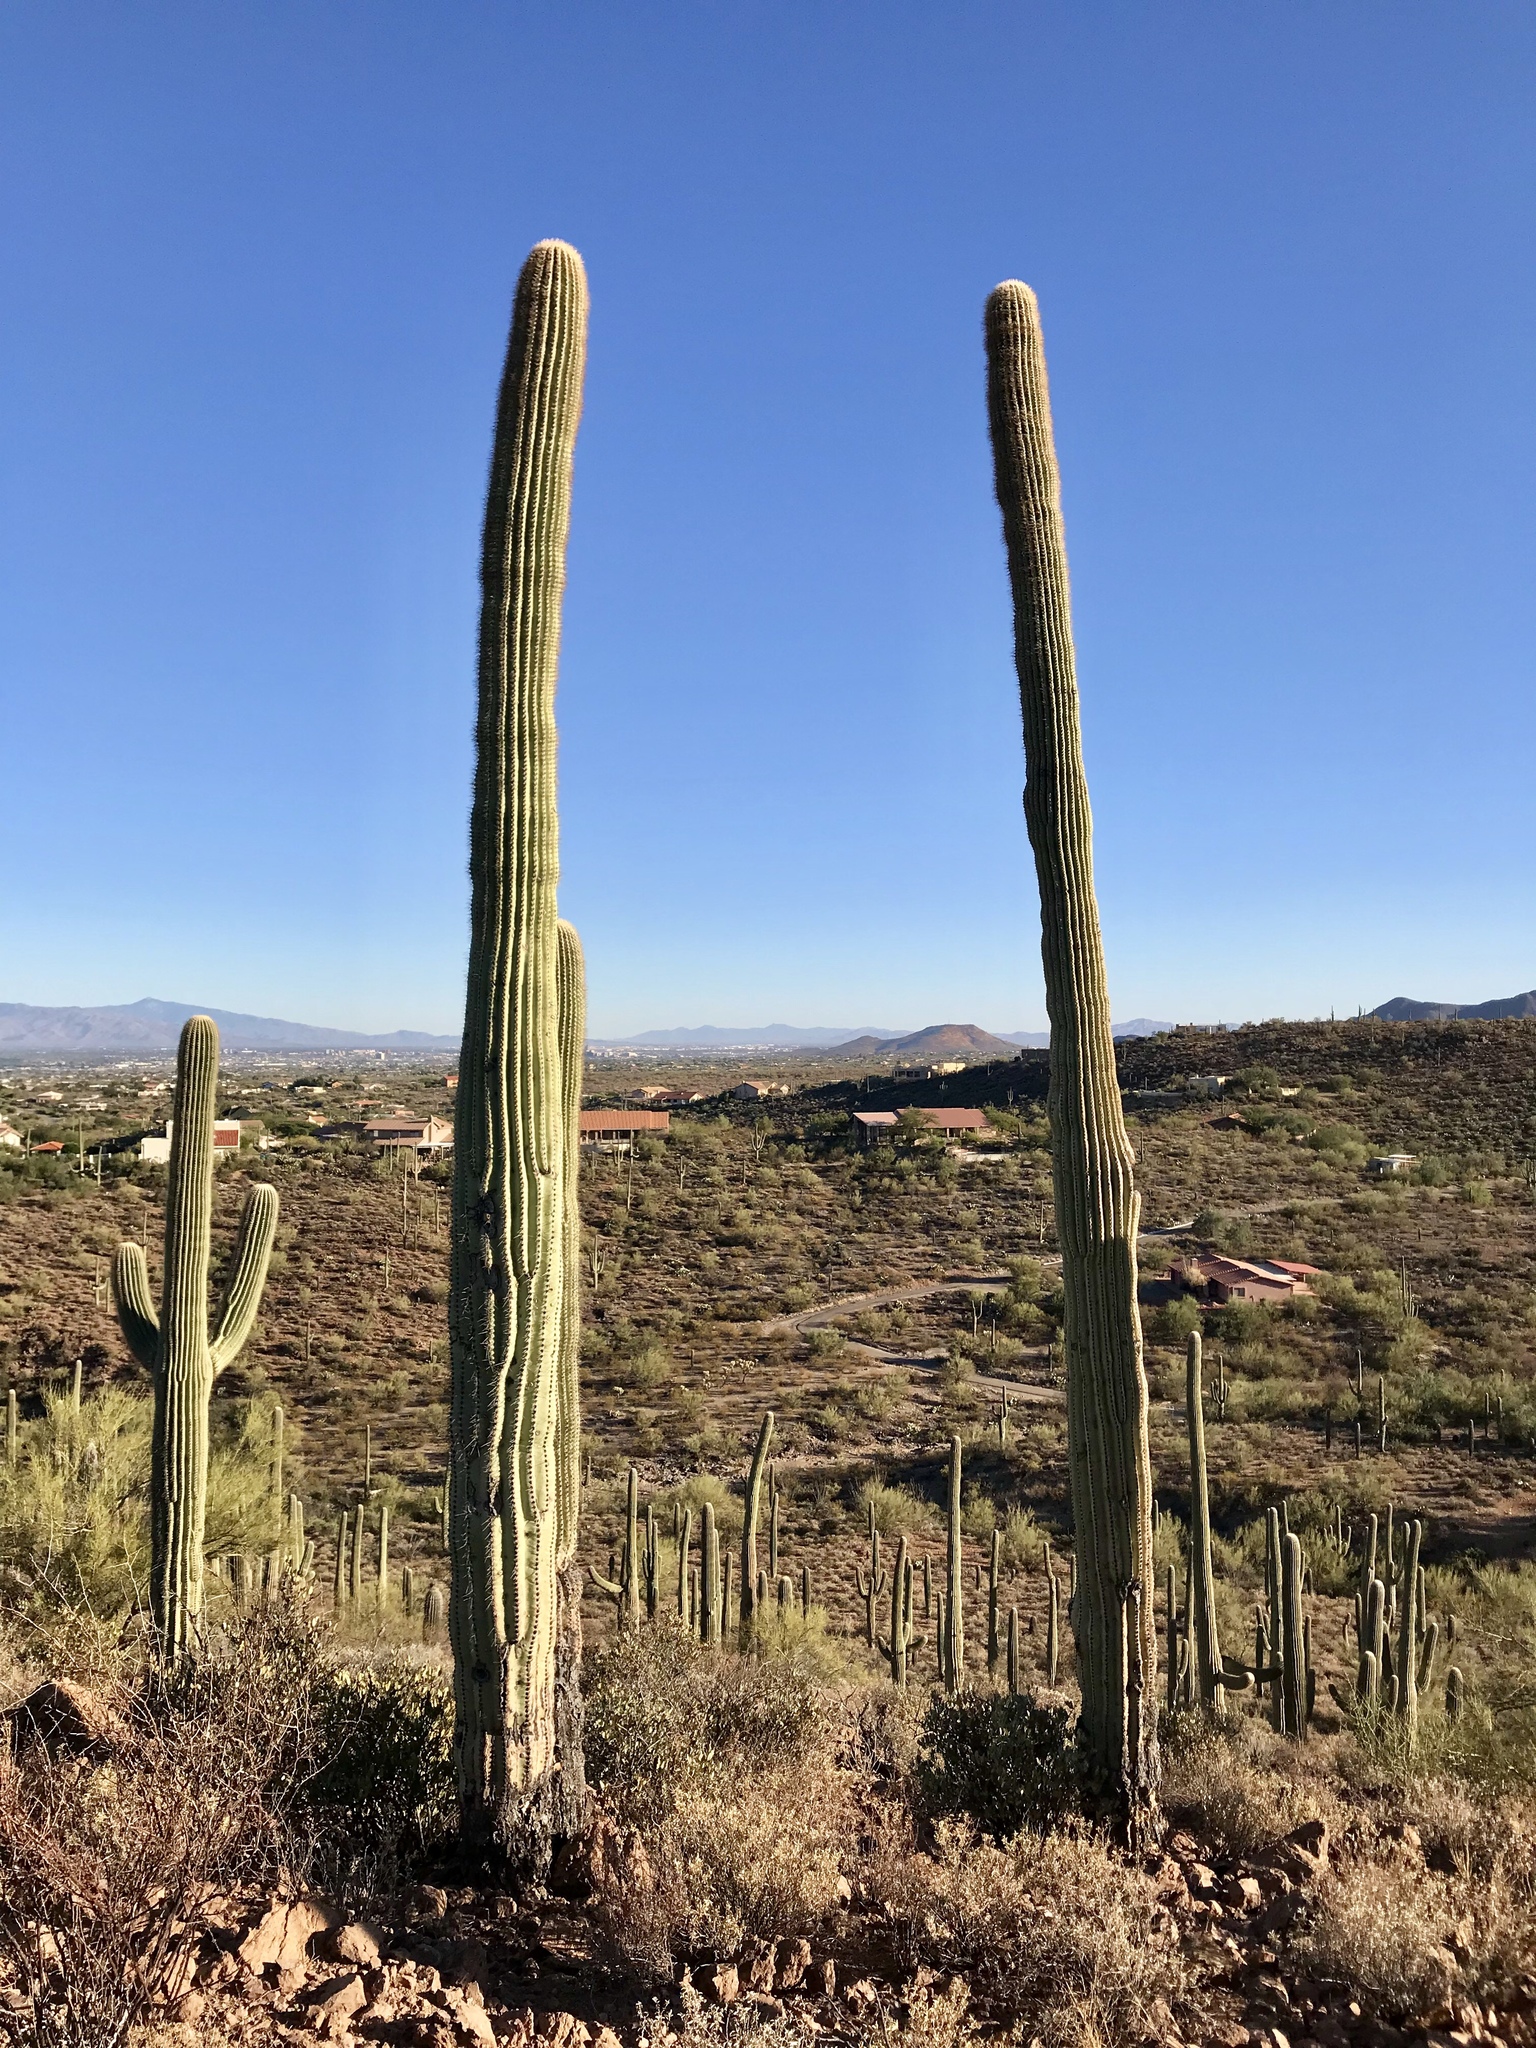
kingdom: Plantae
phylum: Tracheophyta
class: Magnoliopsida
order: Caryophyllales
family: Cactaceae
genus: Carnegiea
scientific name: Carnegiea gigantea
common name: Saguaro
